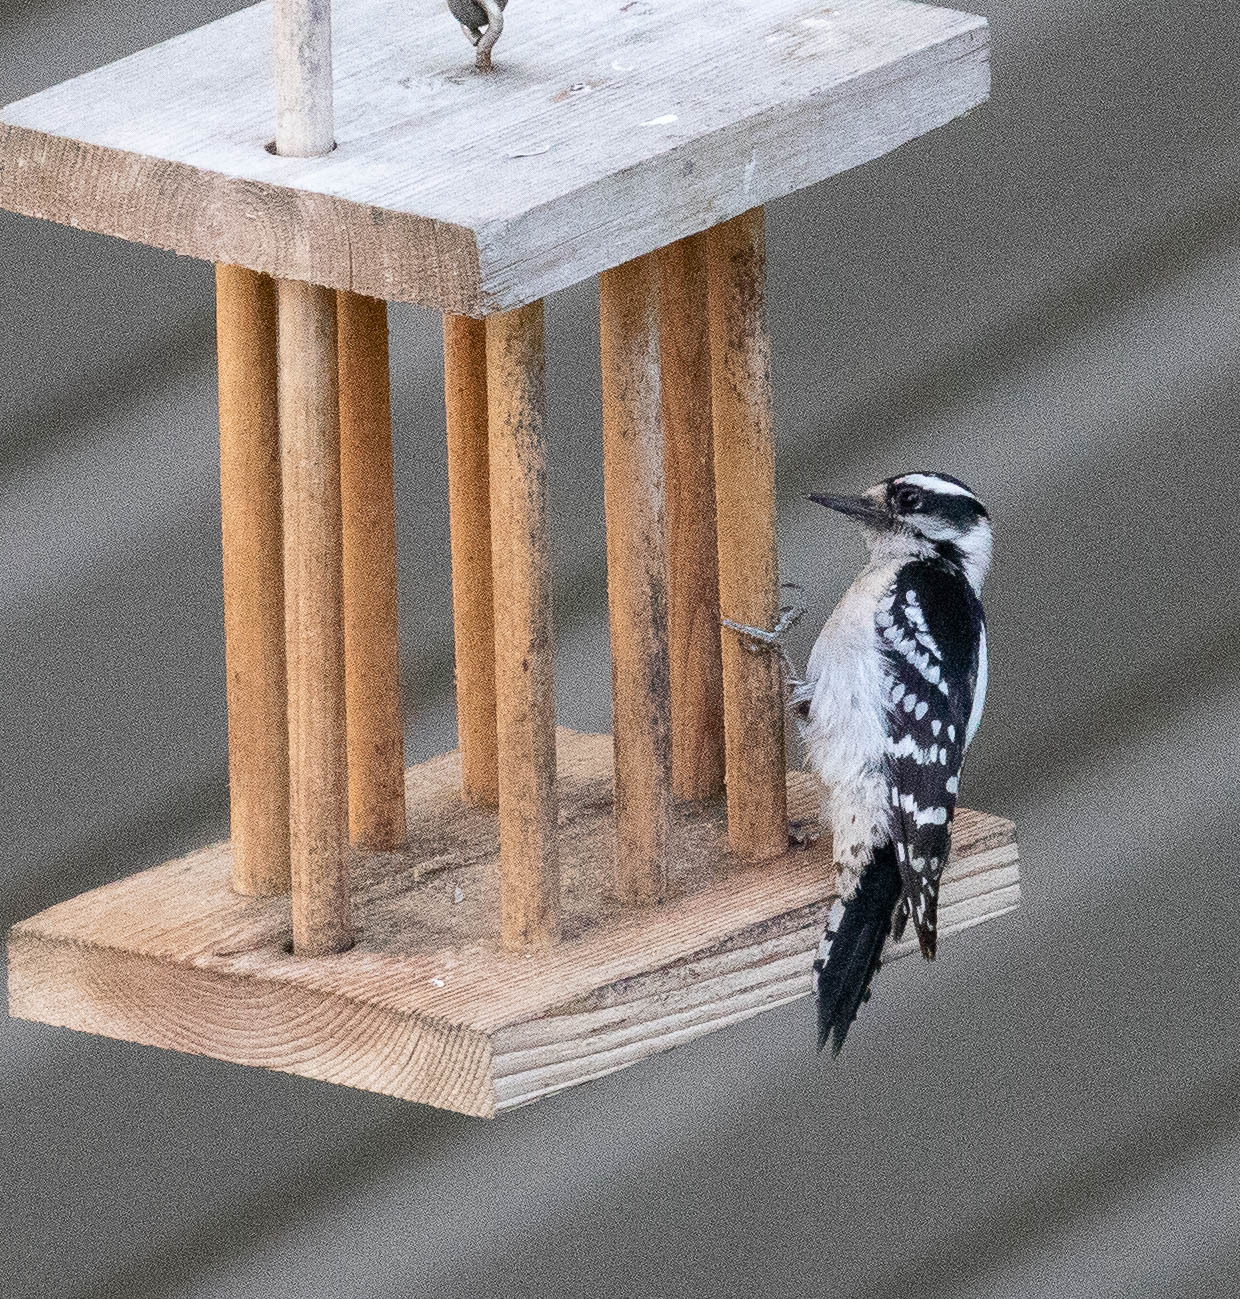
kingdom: Animalia
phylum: Chordata
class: Aves
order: Piciformes
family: Picidae
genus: Dryobates
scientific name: Dryobates pubescens
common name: Downy woodpecker
